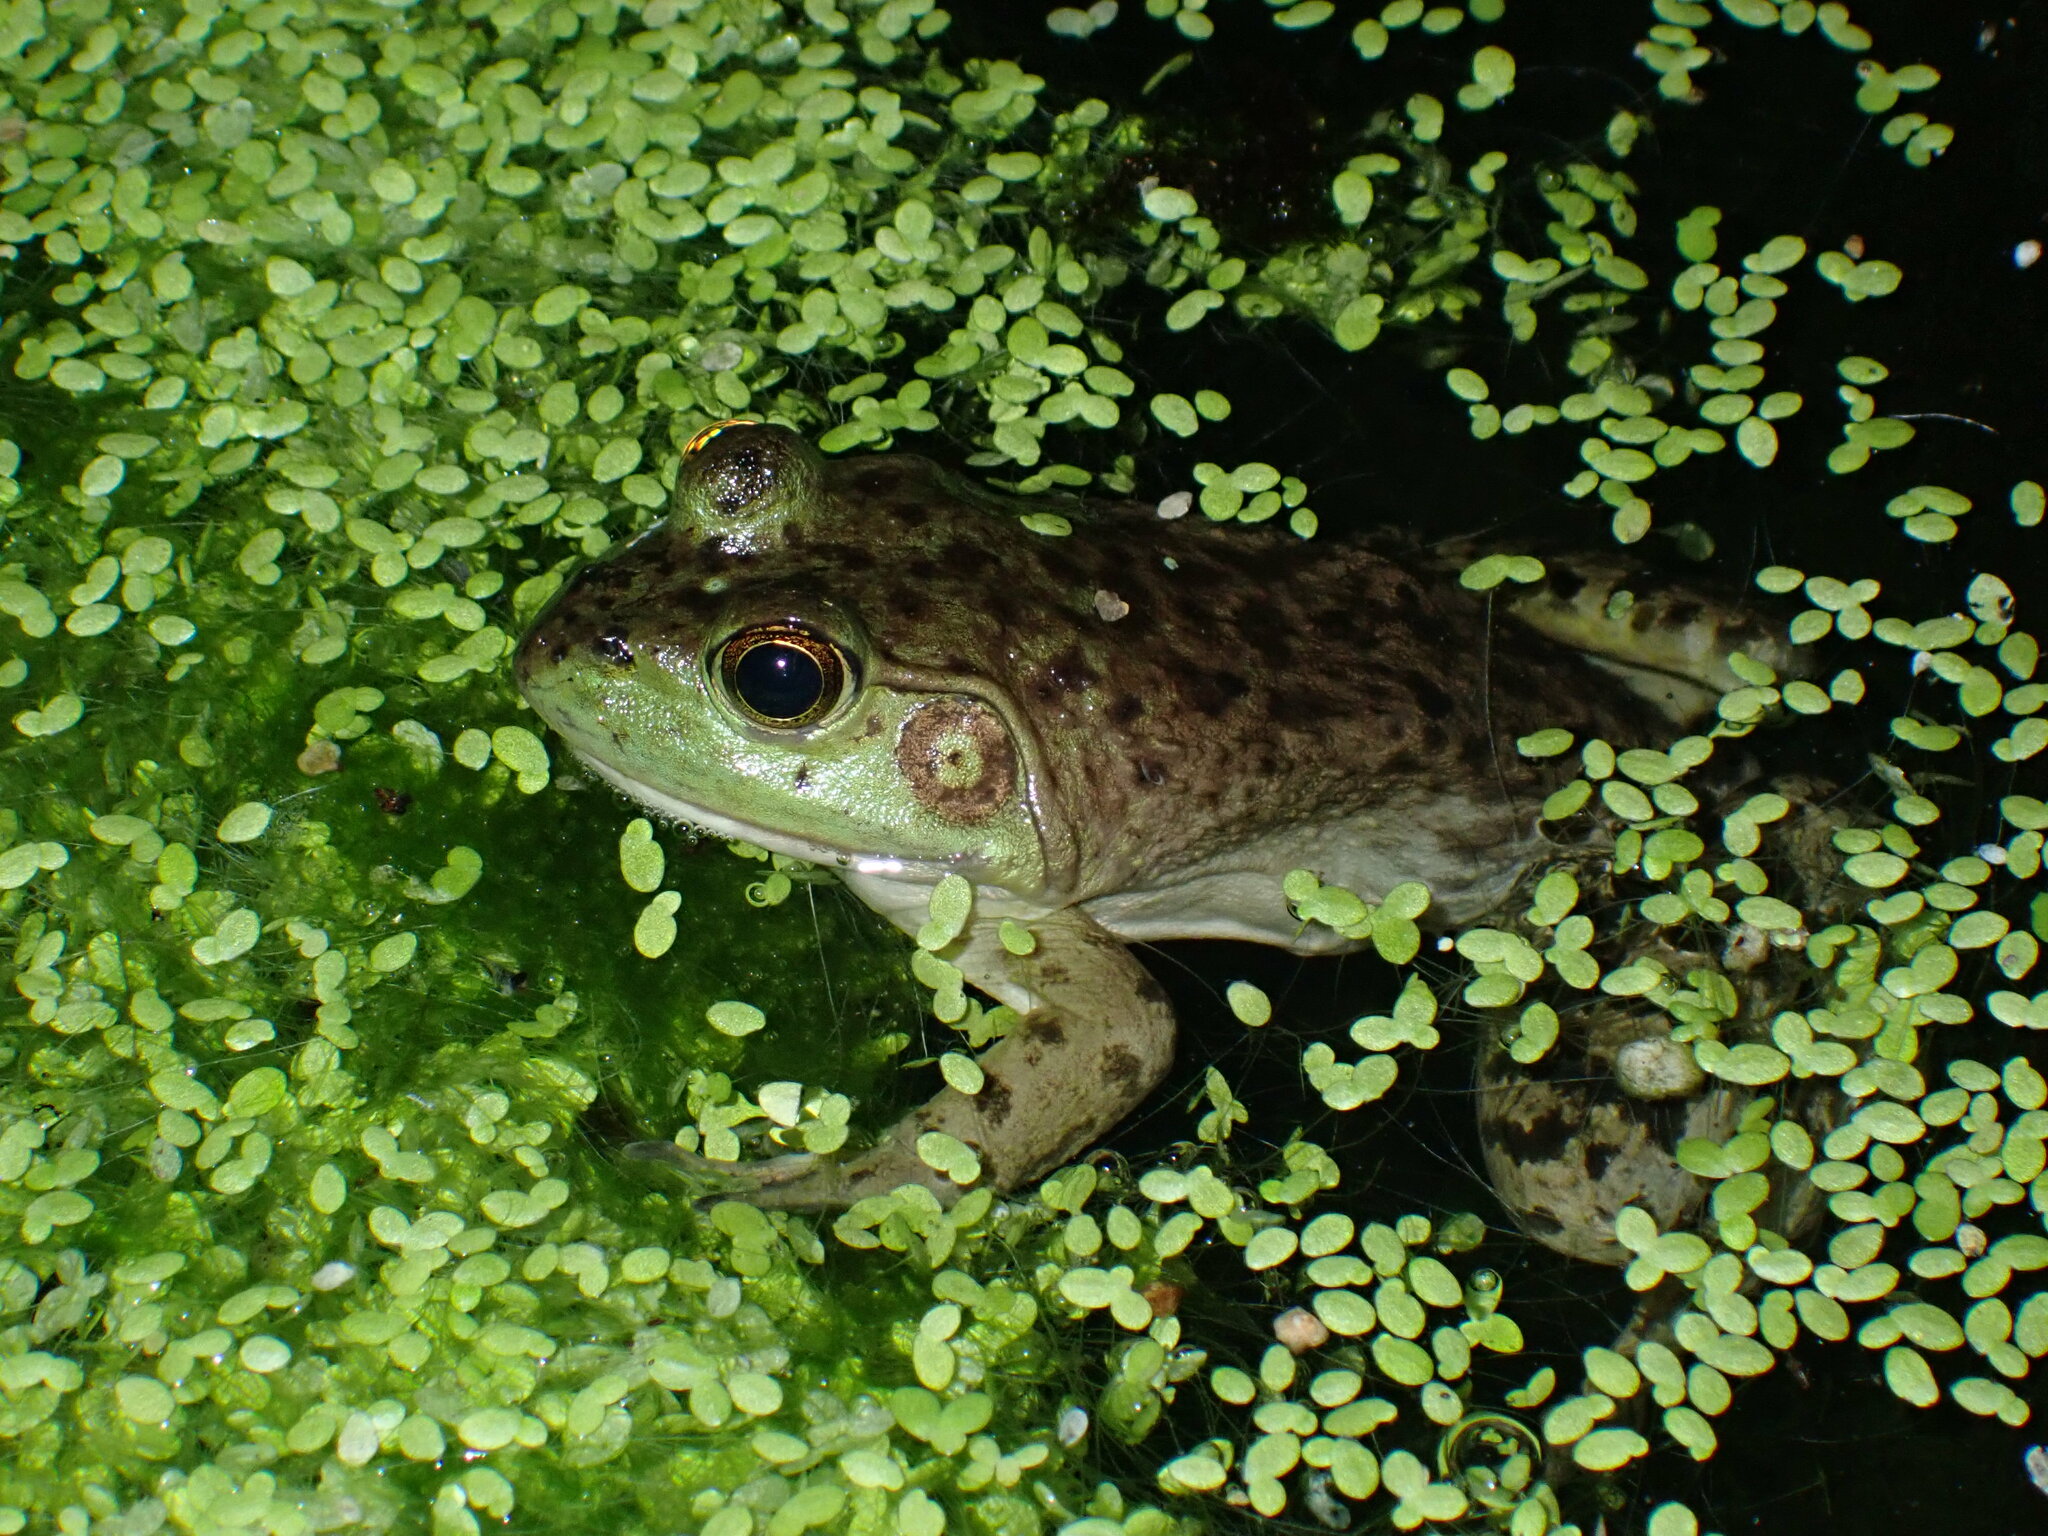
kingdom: Animalia
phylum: Chordata
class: Amphibia
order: Anura
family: Ranidae
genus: Lithobates
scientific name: Lithobates catesbeianus
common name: American bullfrog
